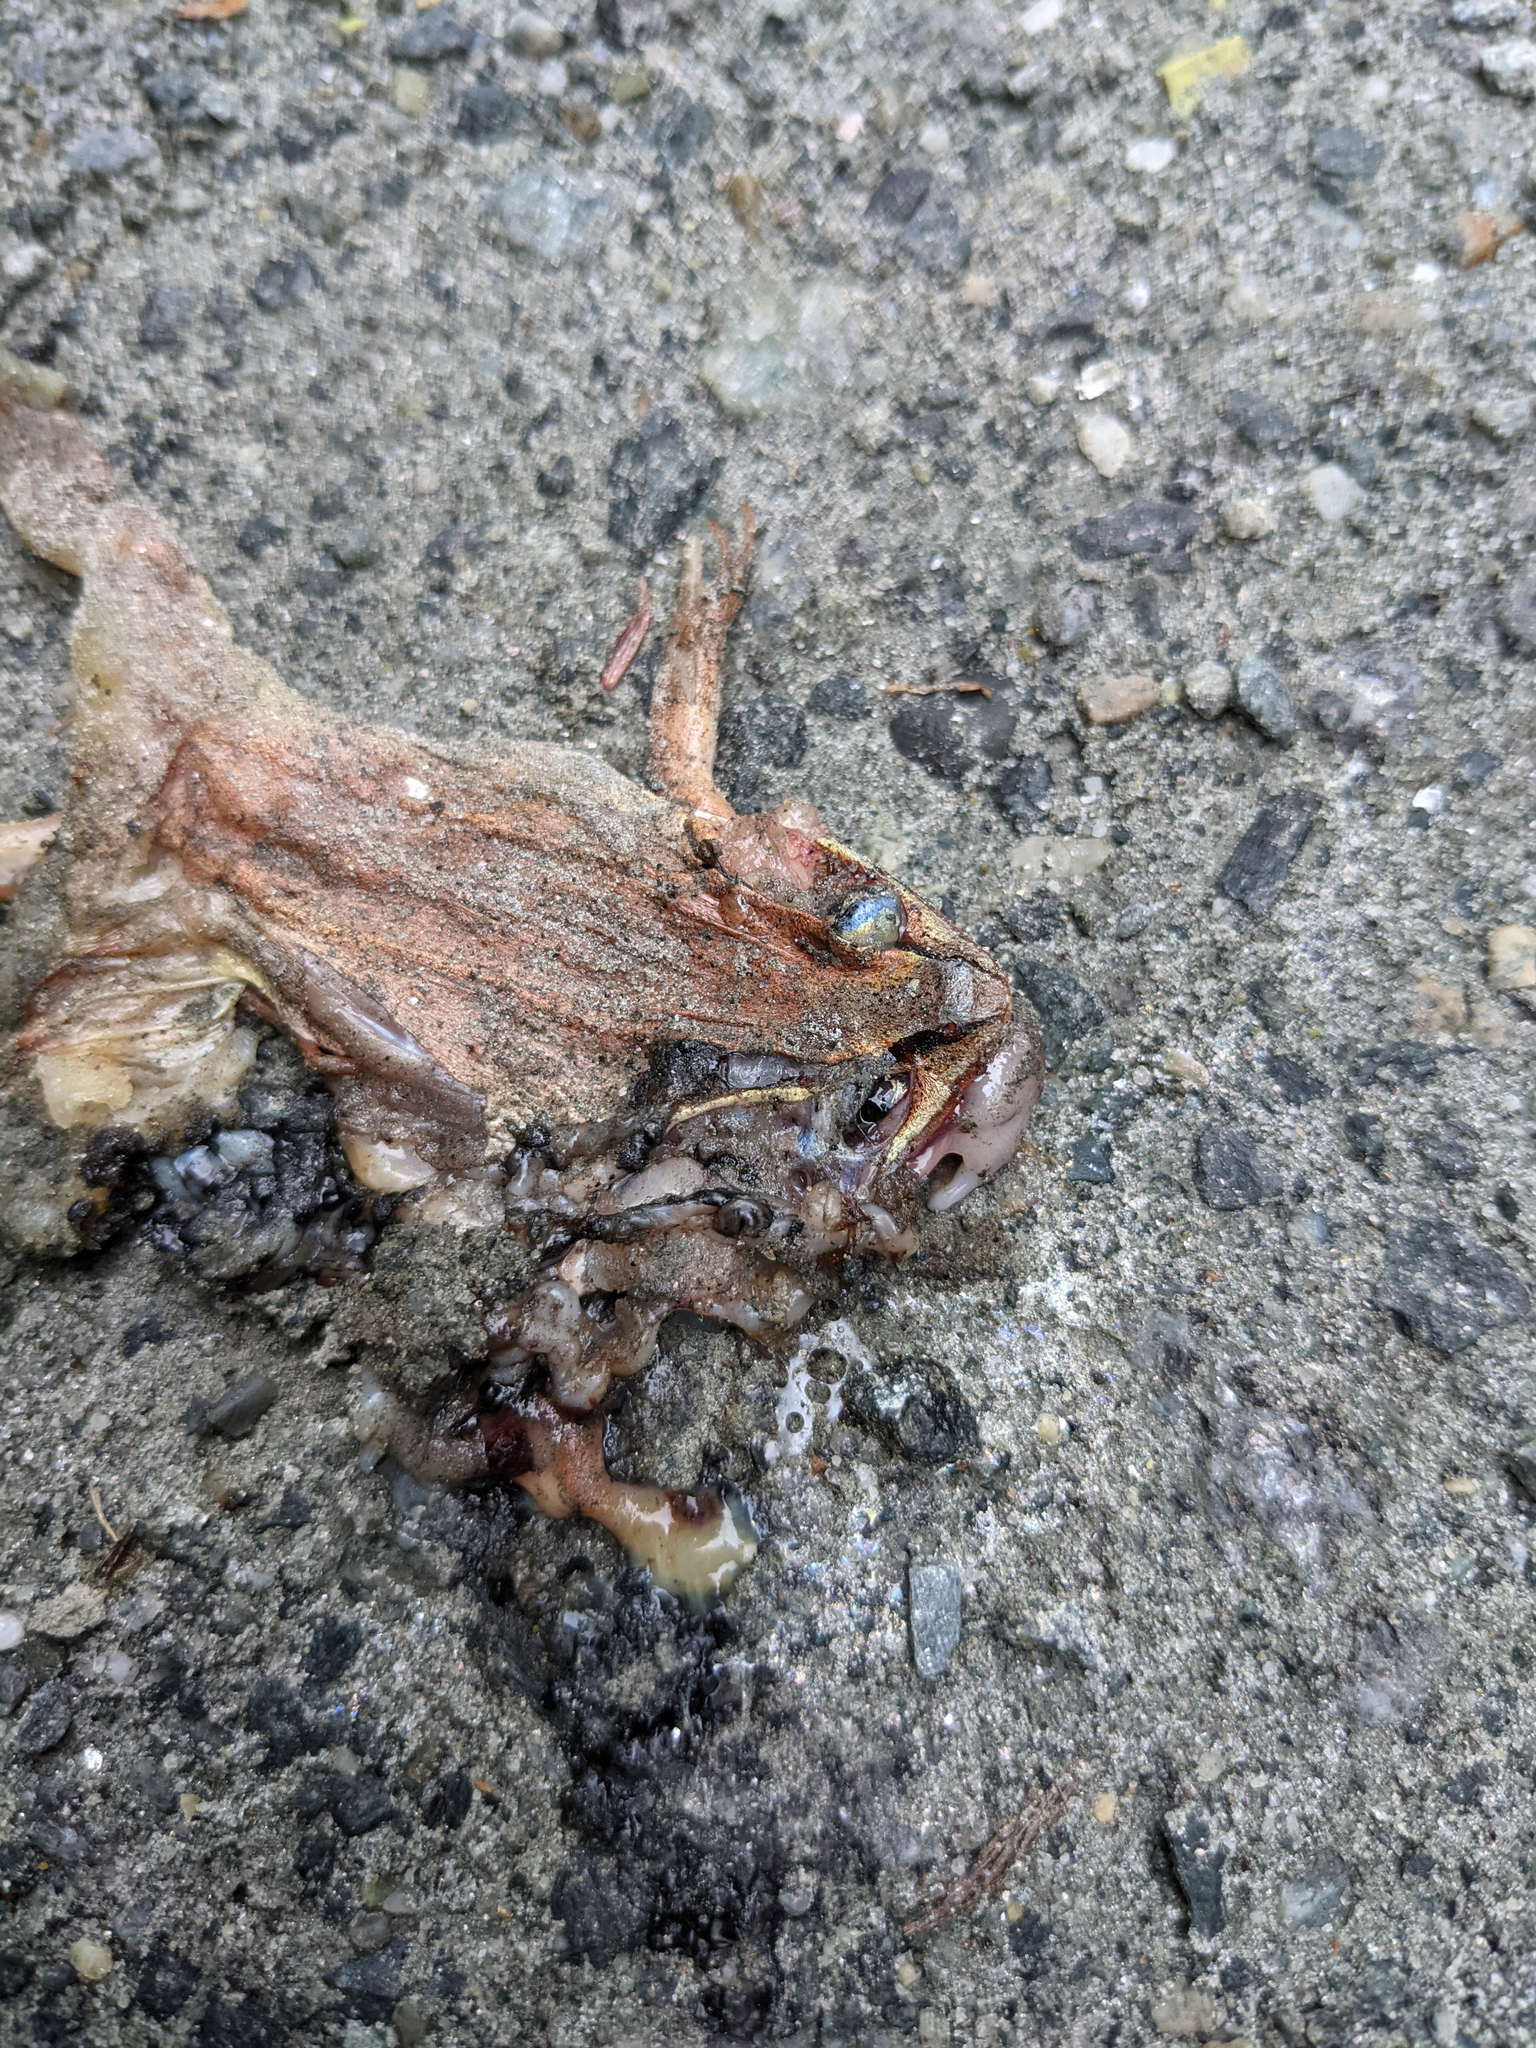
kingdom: Animalia
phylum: Chordata
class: Amphibia
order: Anura
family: Ranidae
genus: Lithobates
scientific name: Lithobates sylvaticus
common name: Wood frog
